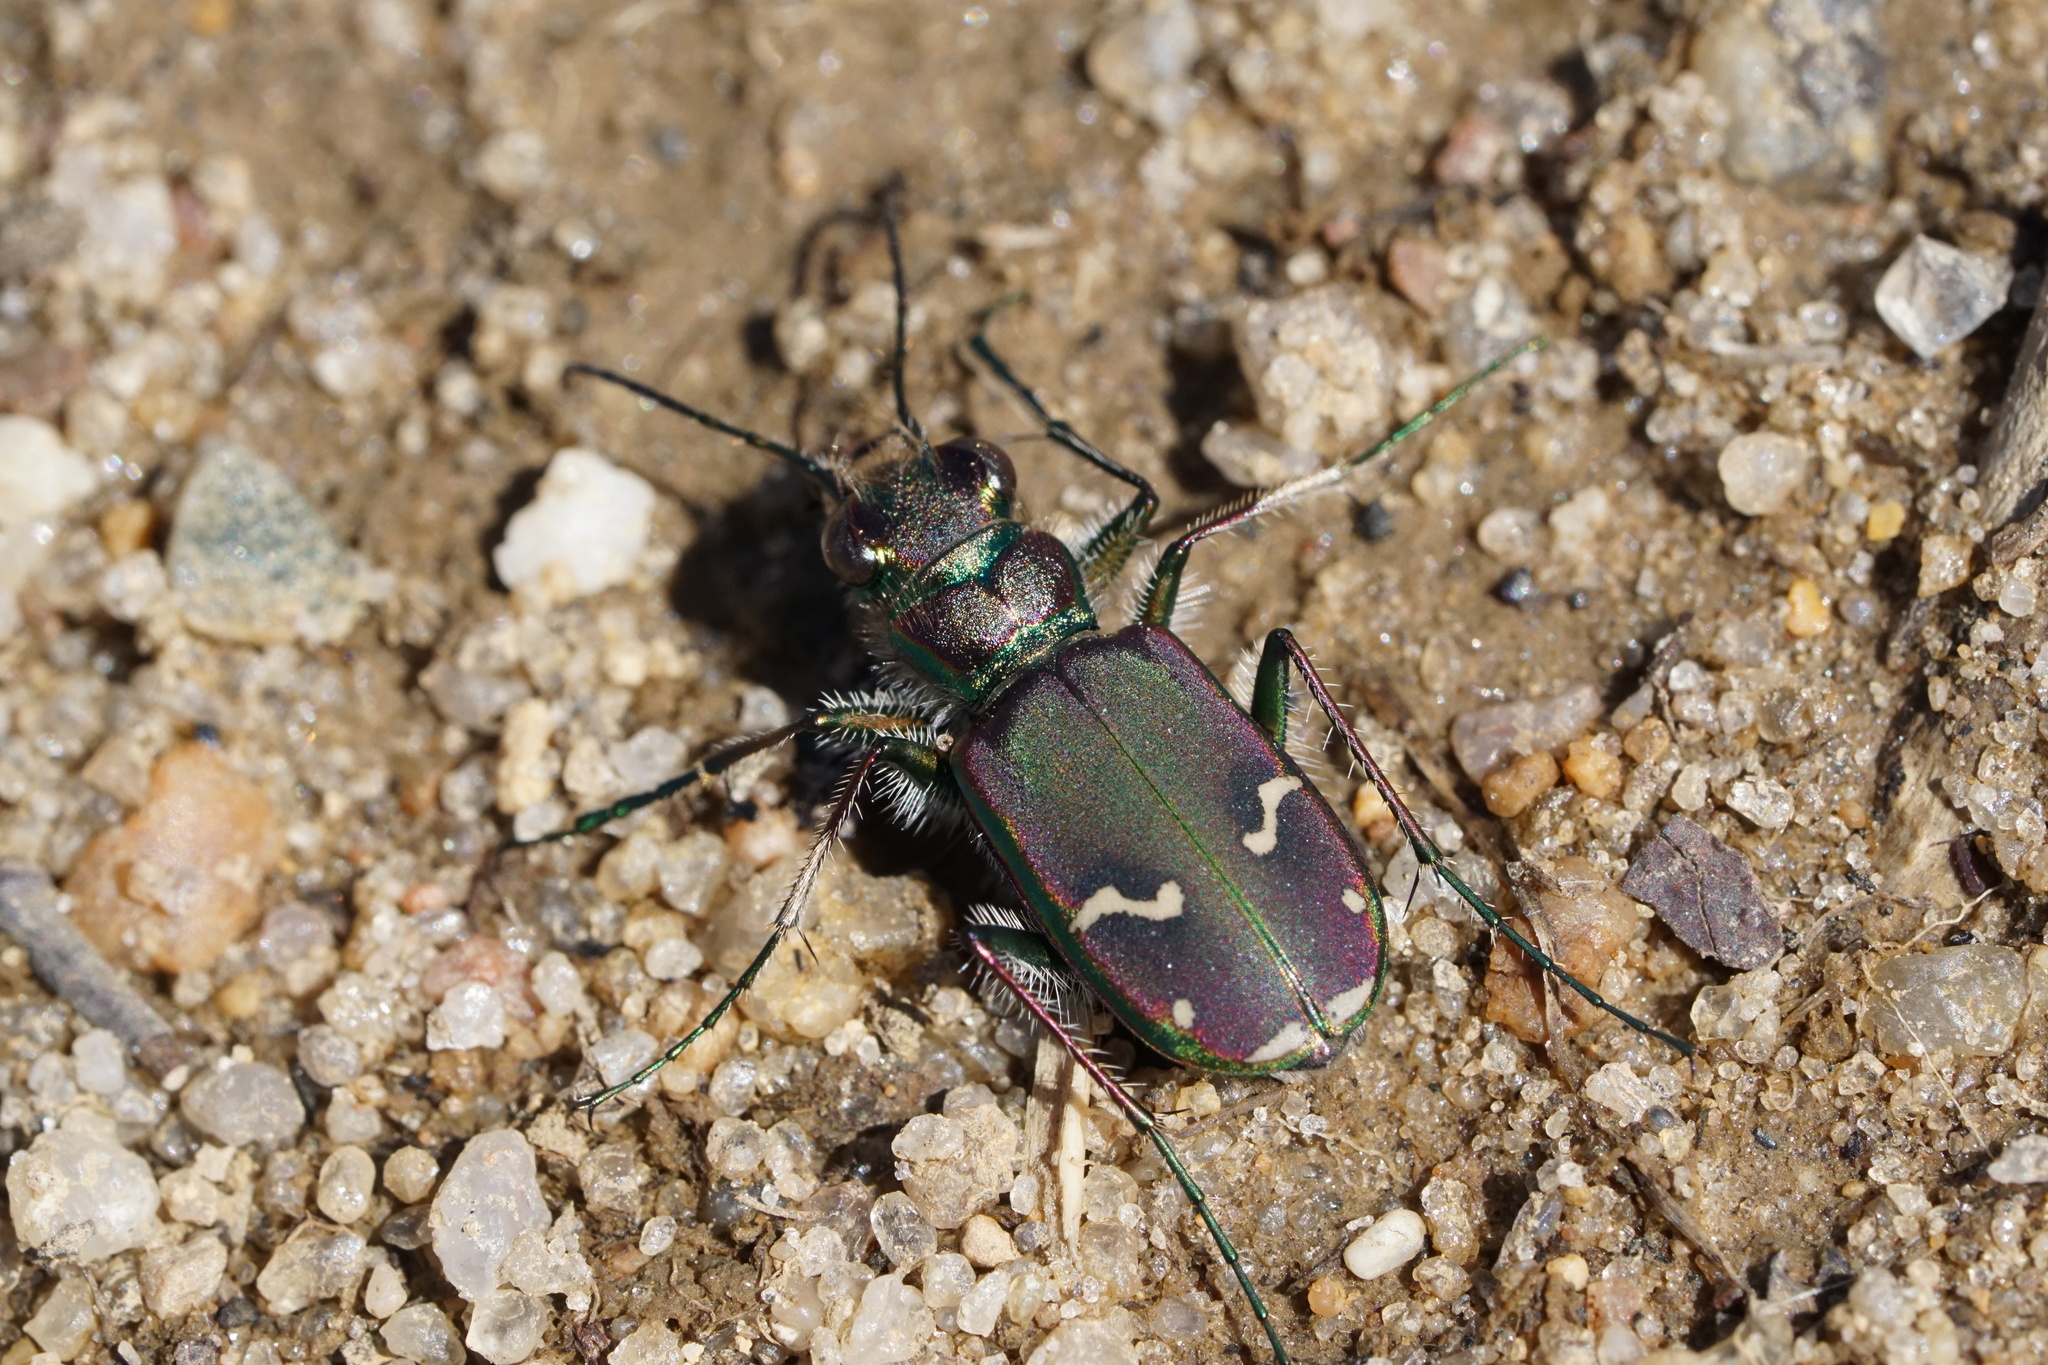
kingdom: Animalia
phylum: Arthropoda
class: Insecta
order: Coleoptera
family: Carabidae
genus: Cicindela
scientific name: Cicindela purpurea
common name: Cow path tiger beetle
